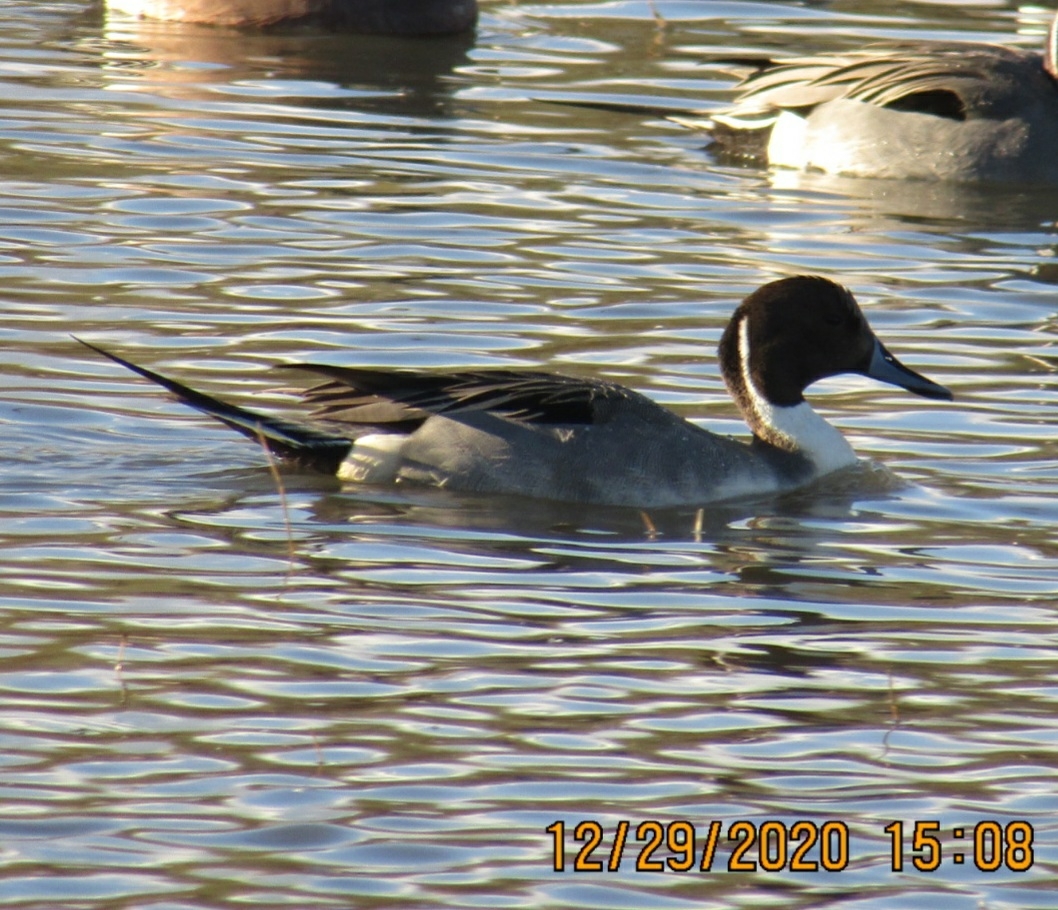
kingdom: Animalia
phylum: Chordata
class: Aves
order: Anseriformes
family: Anatidae
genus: Anas
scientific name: Anas acuta
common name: Northern pintail
